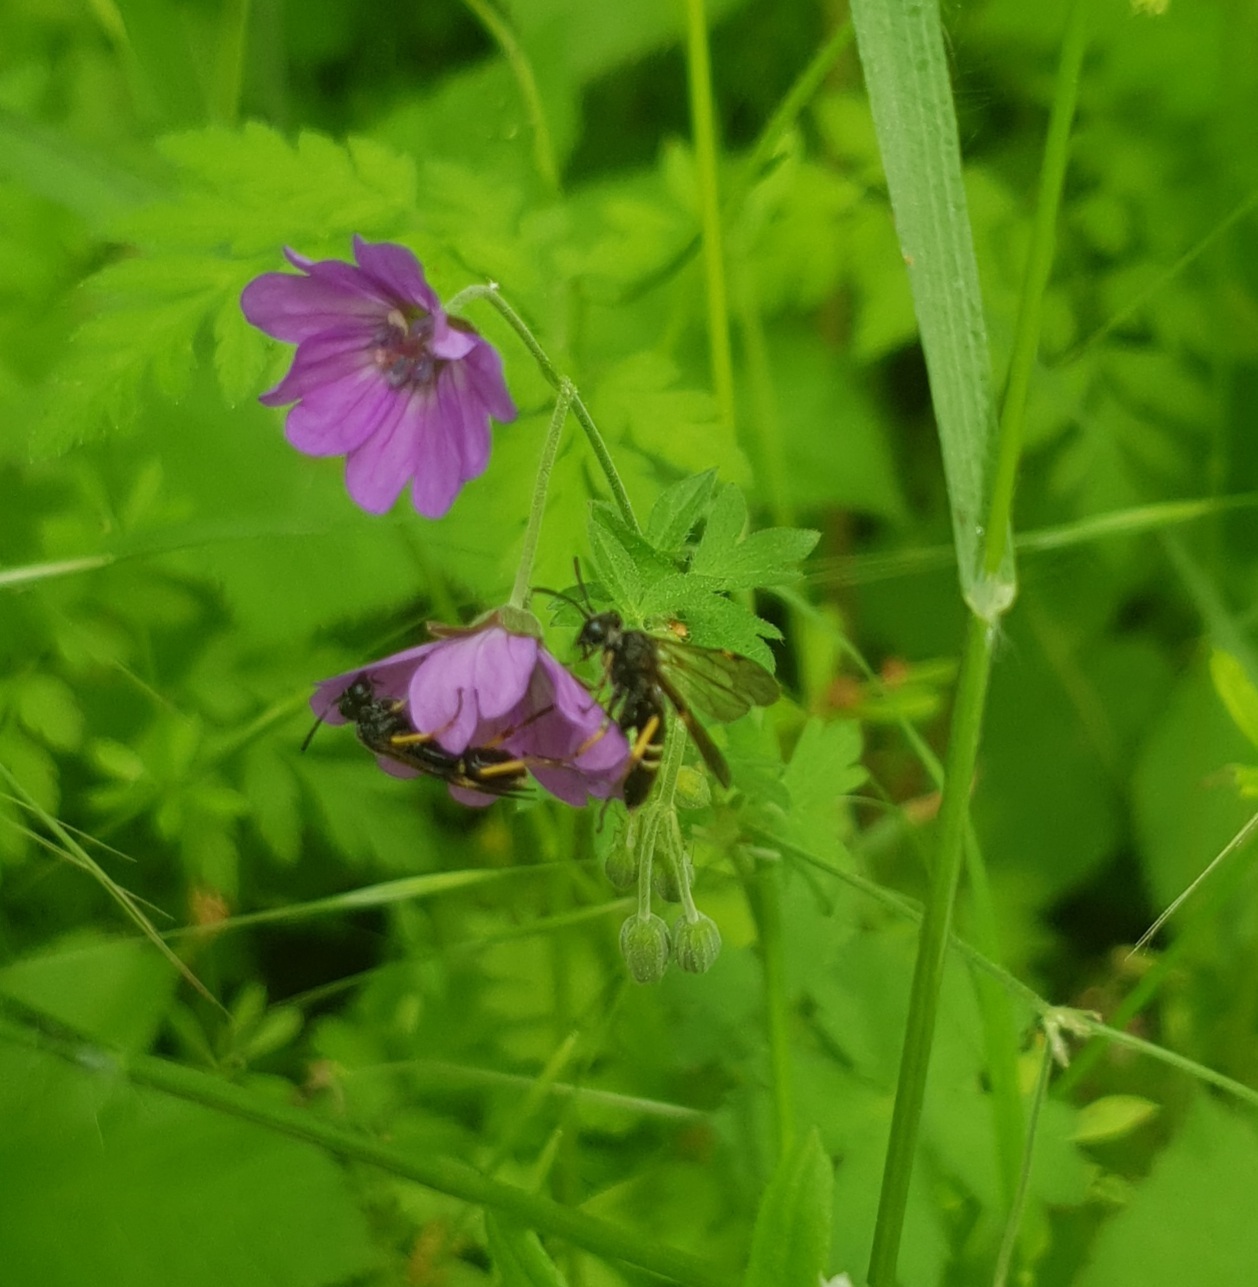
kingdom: Animalia
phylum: Arthropoda
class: Insecta
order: Hymenoptera
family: Tenthredinidae
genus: Tenthredo
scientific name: Tenthredo koehleri
